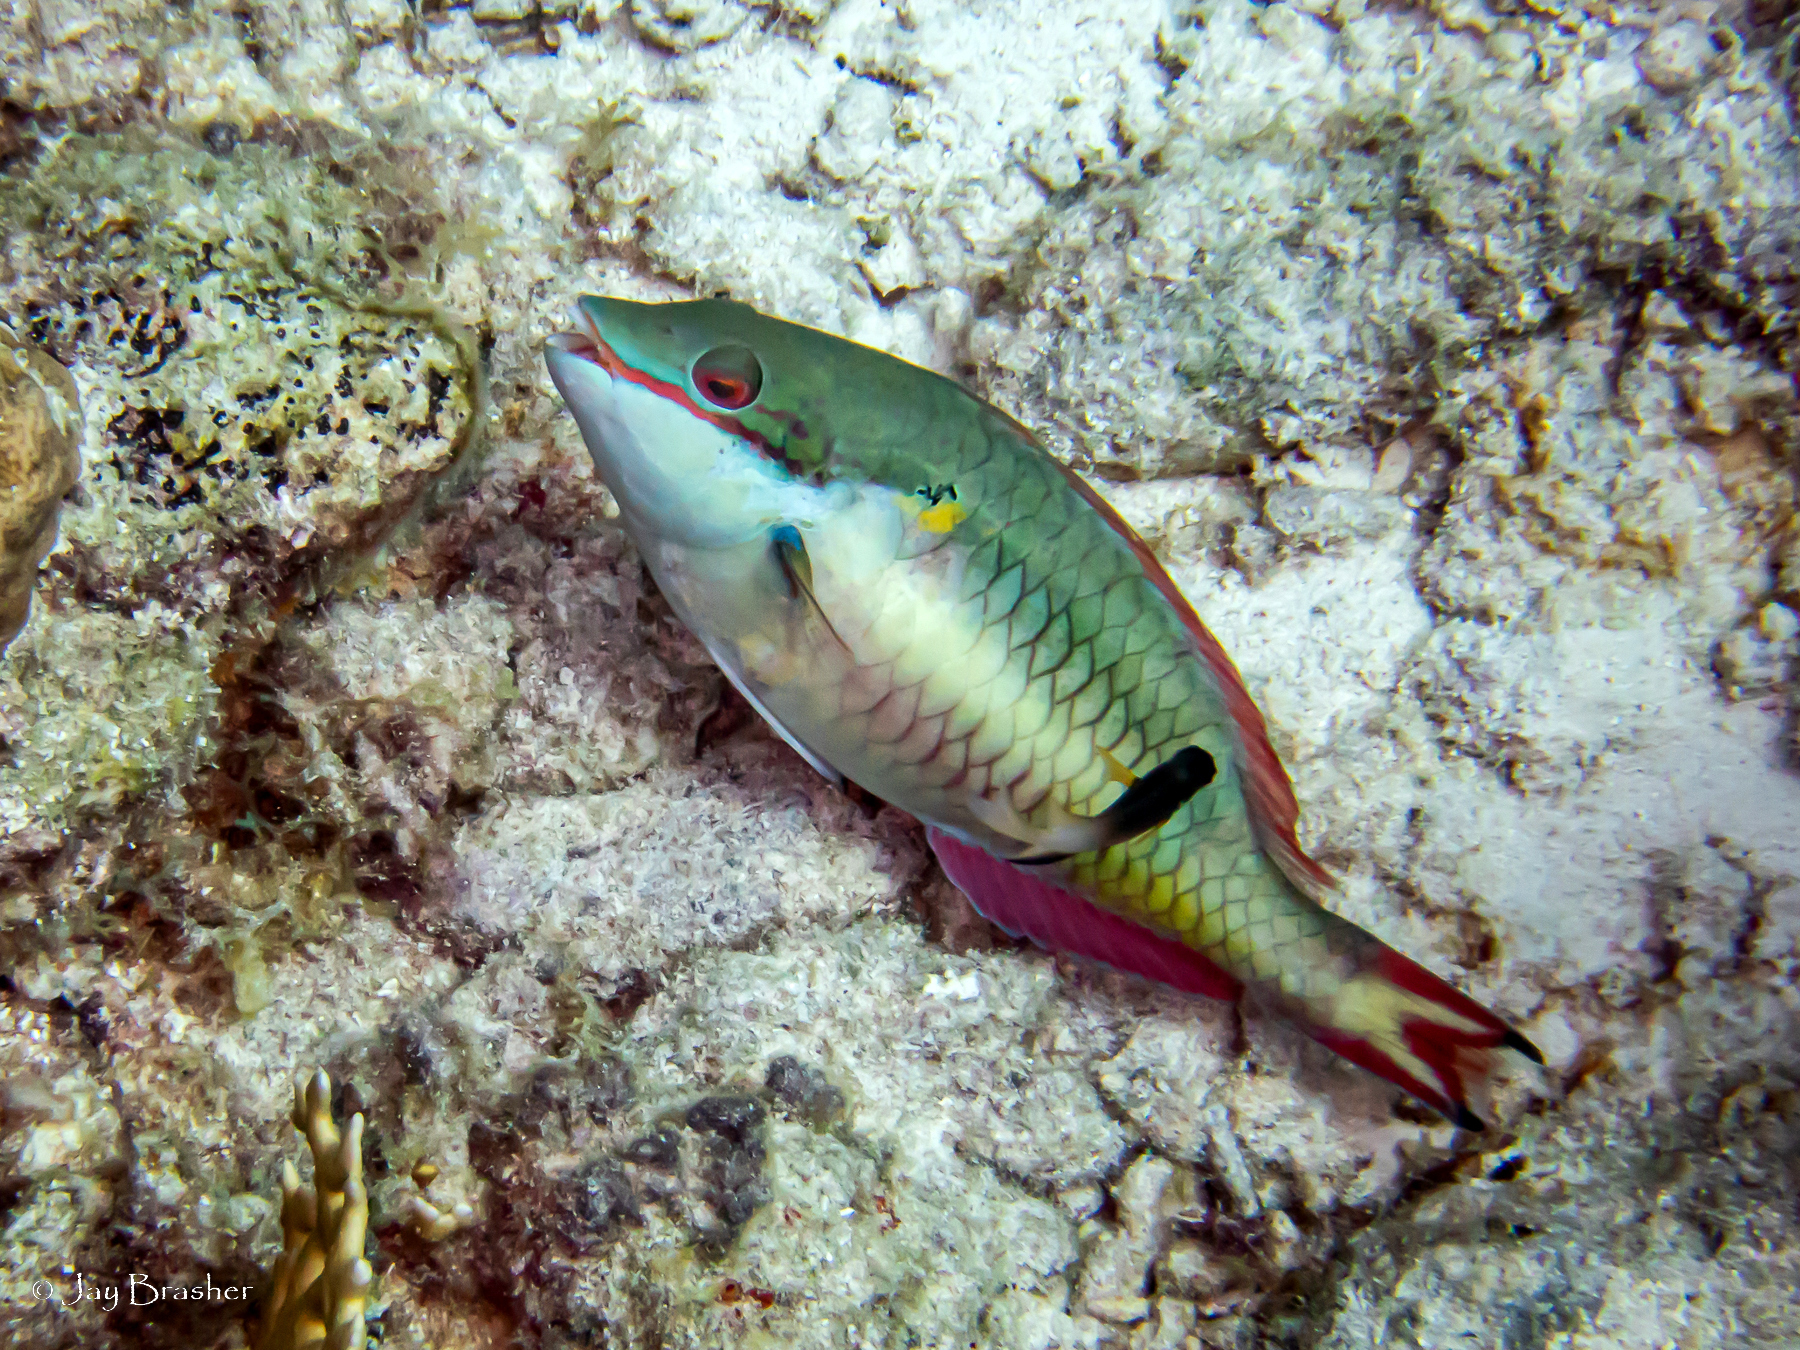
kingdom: Animalia
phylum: Chordata
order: Perciformes
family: Scaridae
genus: Sparisoma
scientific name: Sparisoma aurofrenatum
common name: Redband parrotfish
